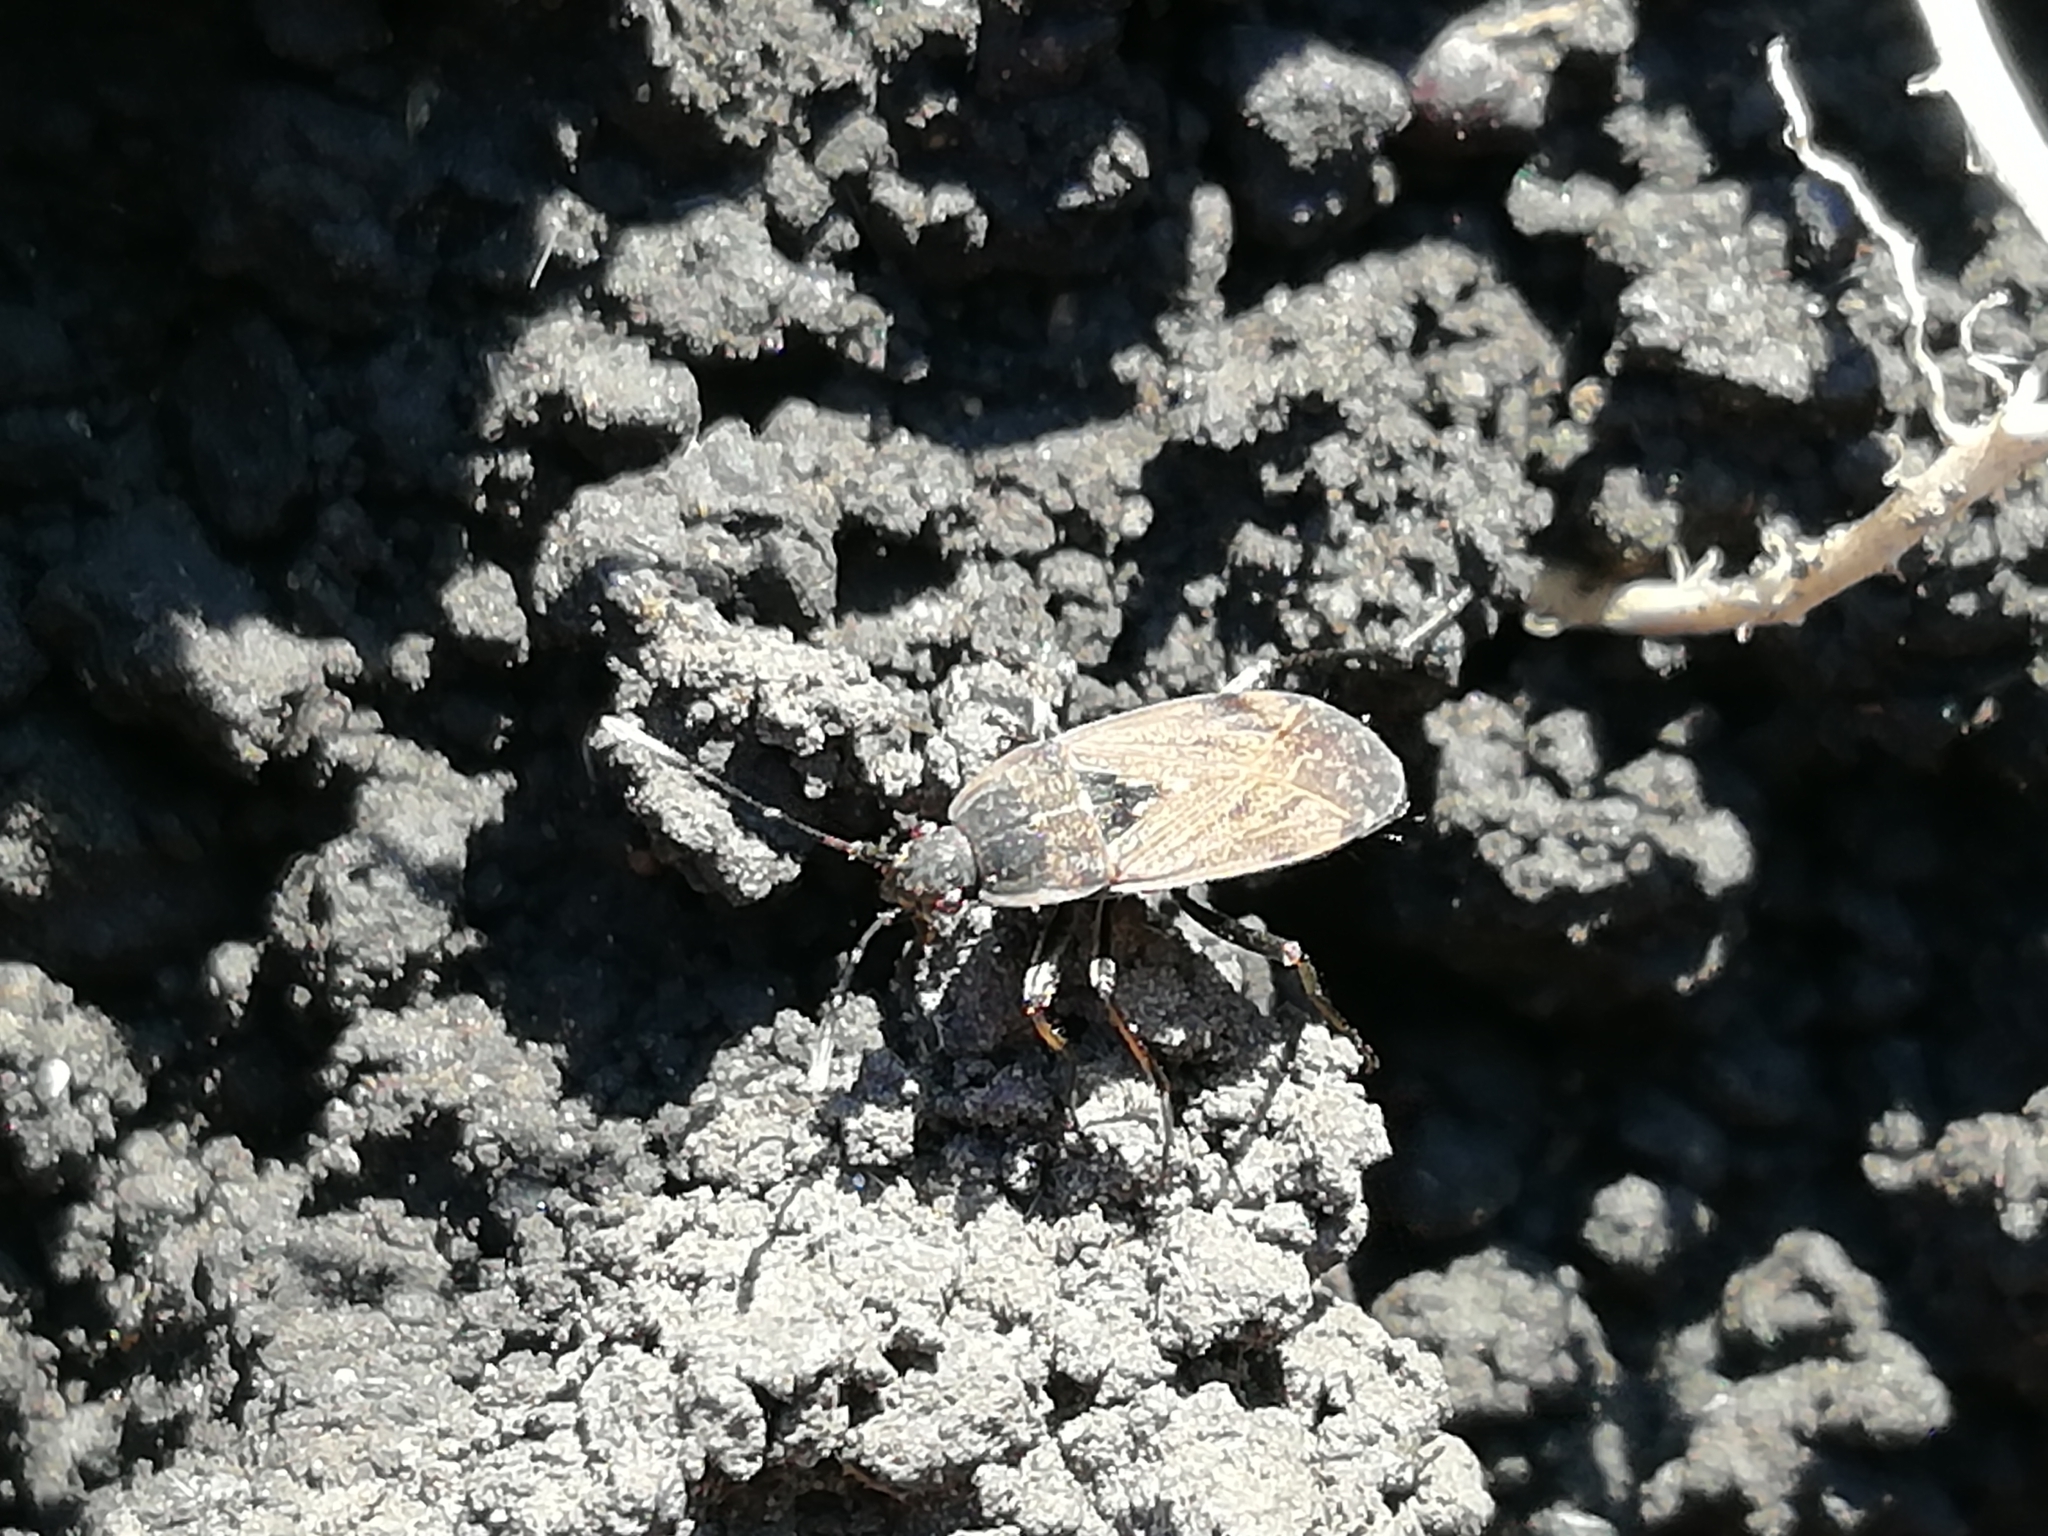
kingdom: Animalia
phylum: Arthropoda
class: Insecta
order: Hemiptera
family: Rhyparochromidae
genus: Panaorus
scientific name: Panaorus adspersus
